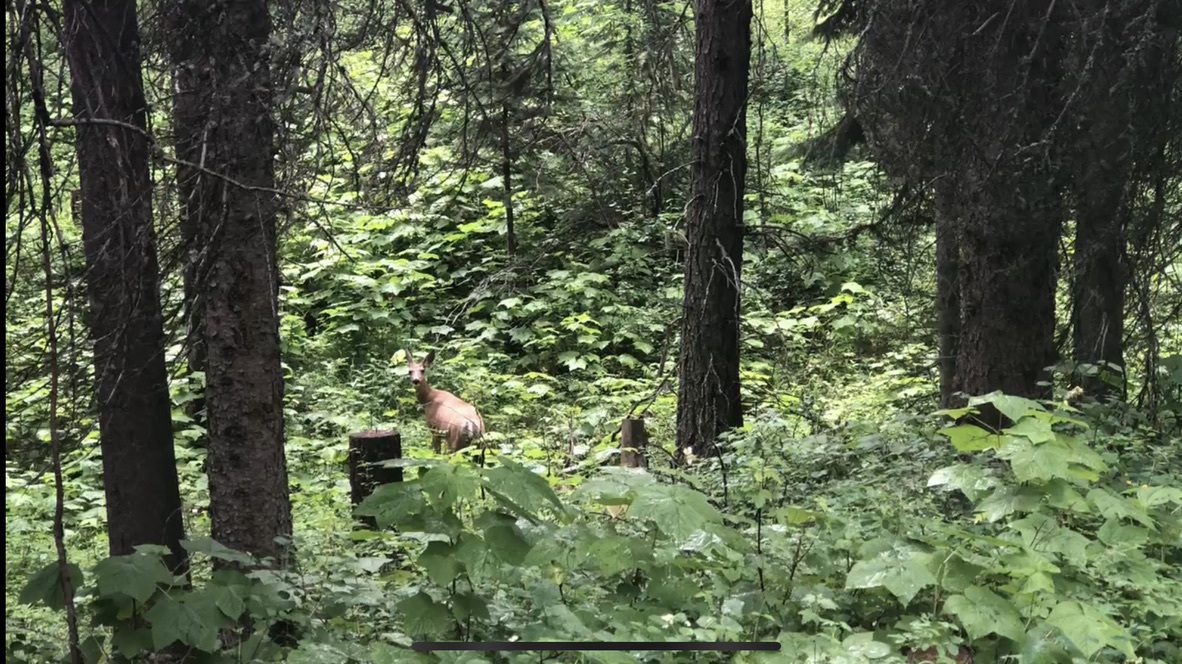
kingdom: Animalia
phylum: Chordata
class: Mammalia
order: Artiodactyla
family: Cervidae
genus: Odocoileus
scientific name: Odocoileus hemionus
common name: Mule deer
